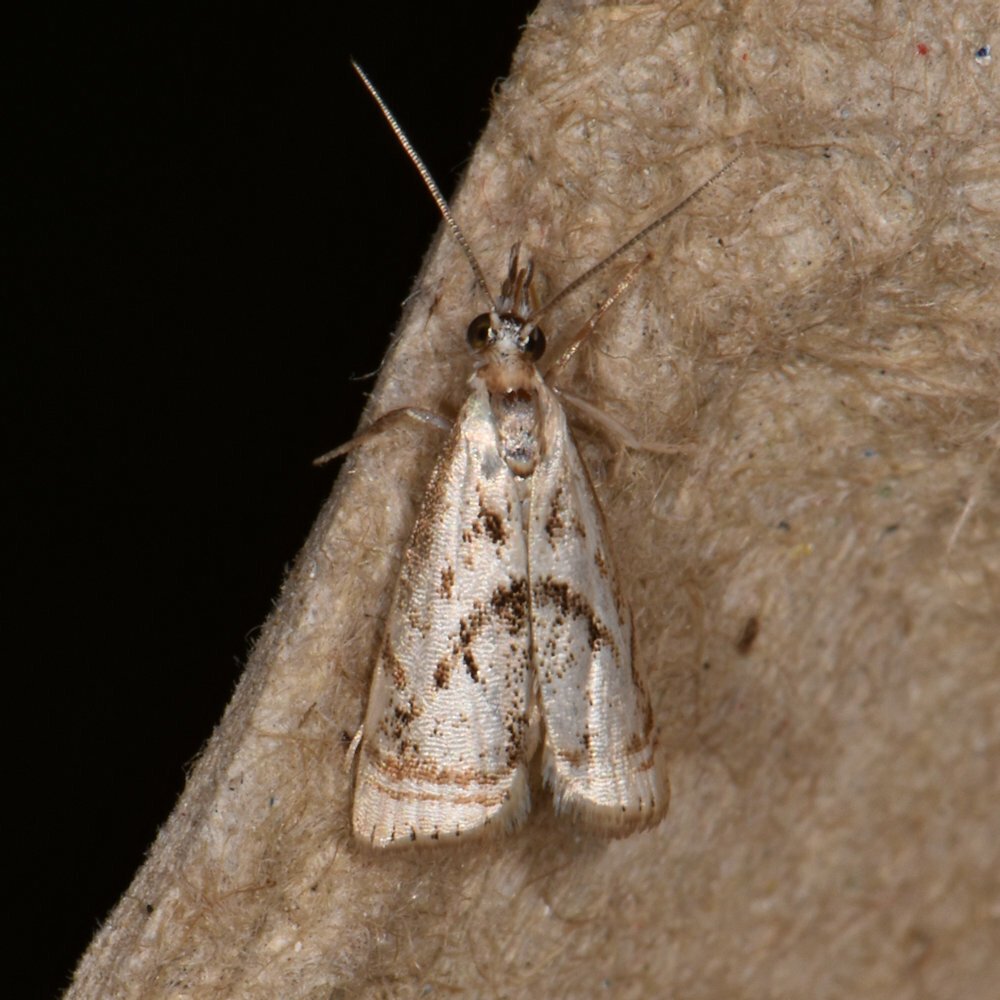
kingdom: Animalia
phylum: Arthropoda
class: Insecta
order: Lepidoptera
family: Crambidae
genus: Microcrambus
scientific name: Microcrambus elegans
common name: Elegant grass-veneer
